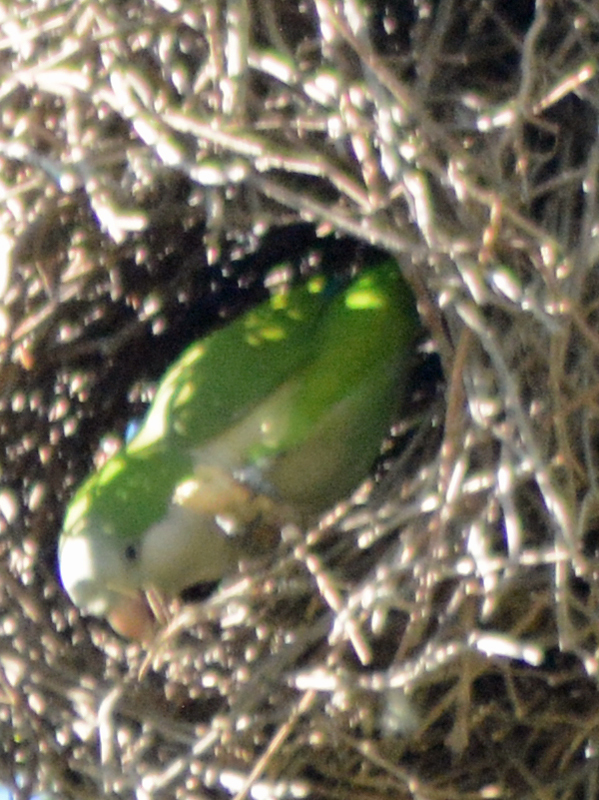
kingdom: Animalia
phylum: Chordata
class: Aves
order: Psittaciformes
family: Psittacidae
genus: Myiopsitta
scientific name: Myiopsitta monachus
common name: Monk parakeet
